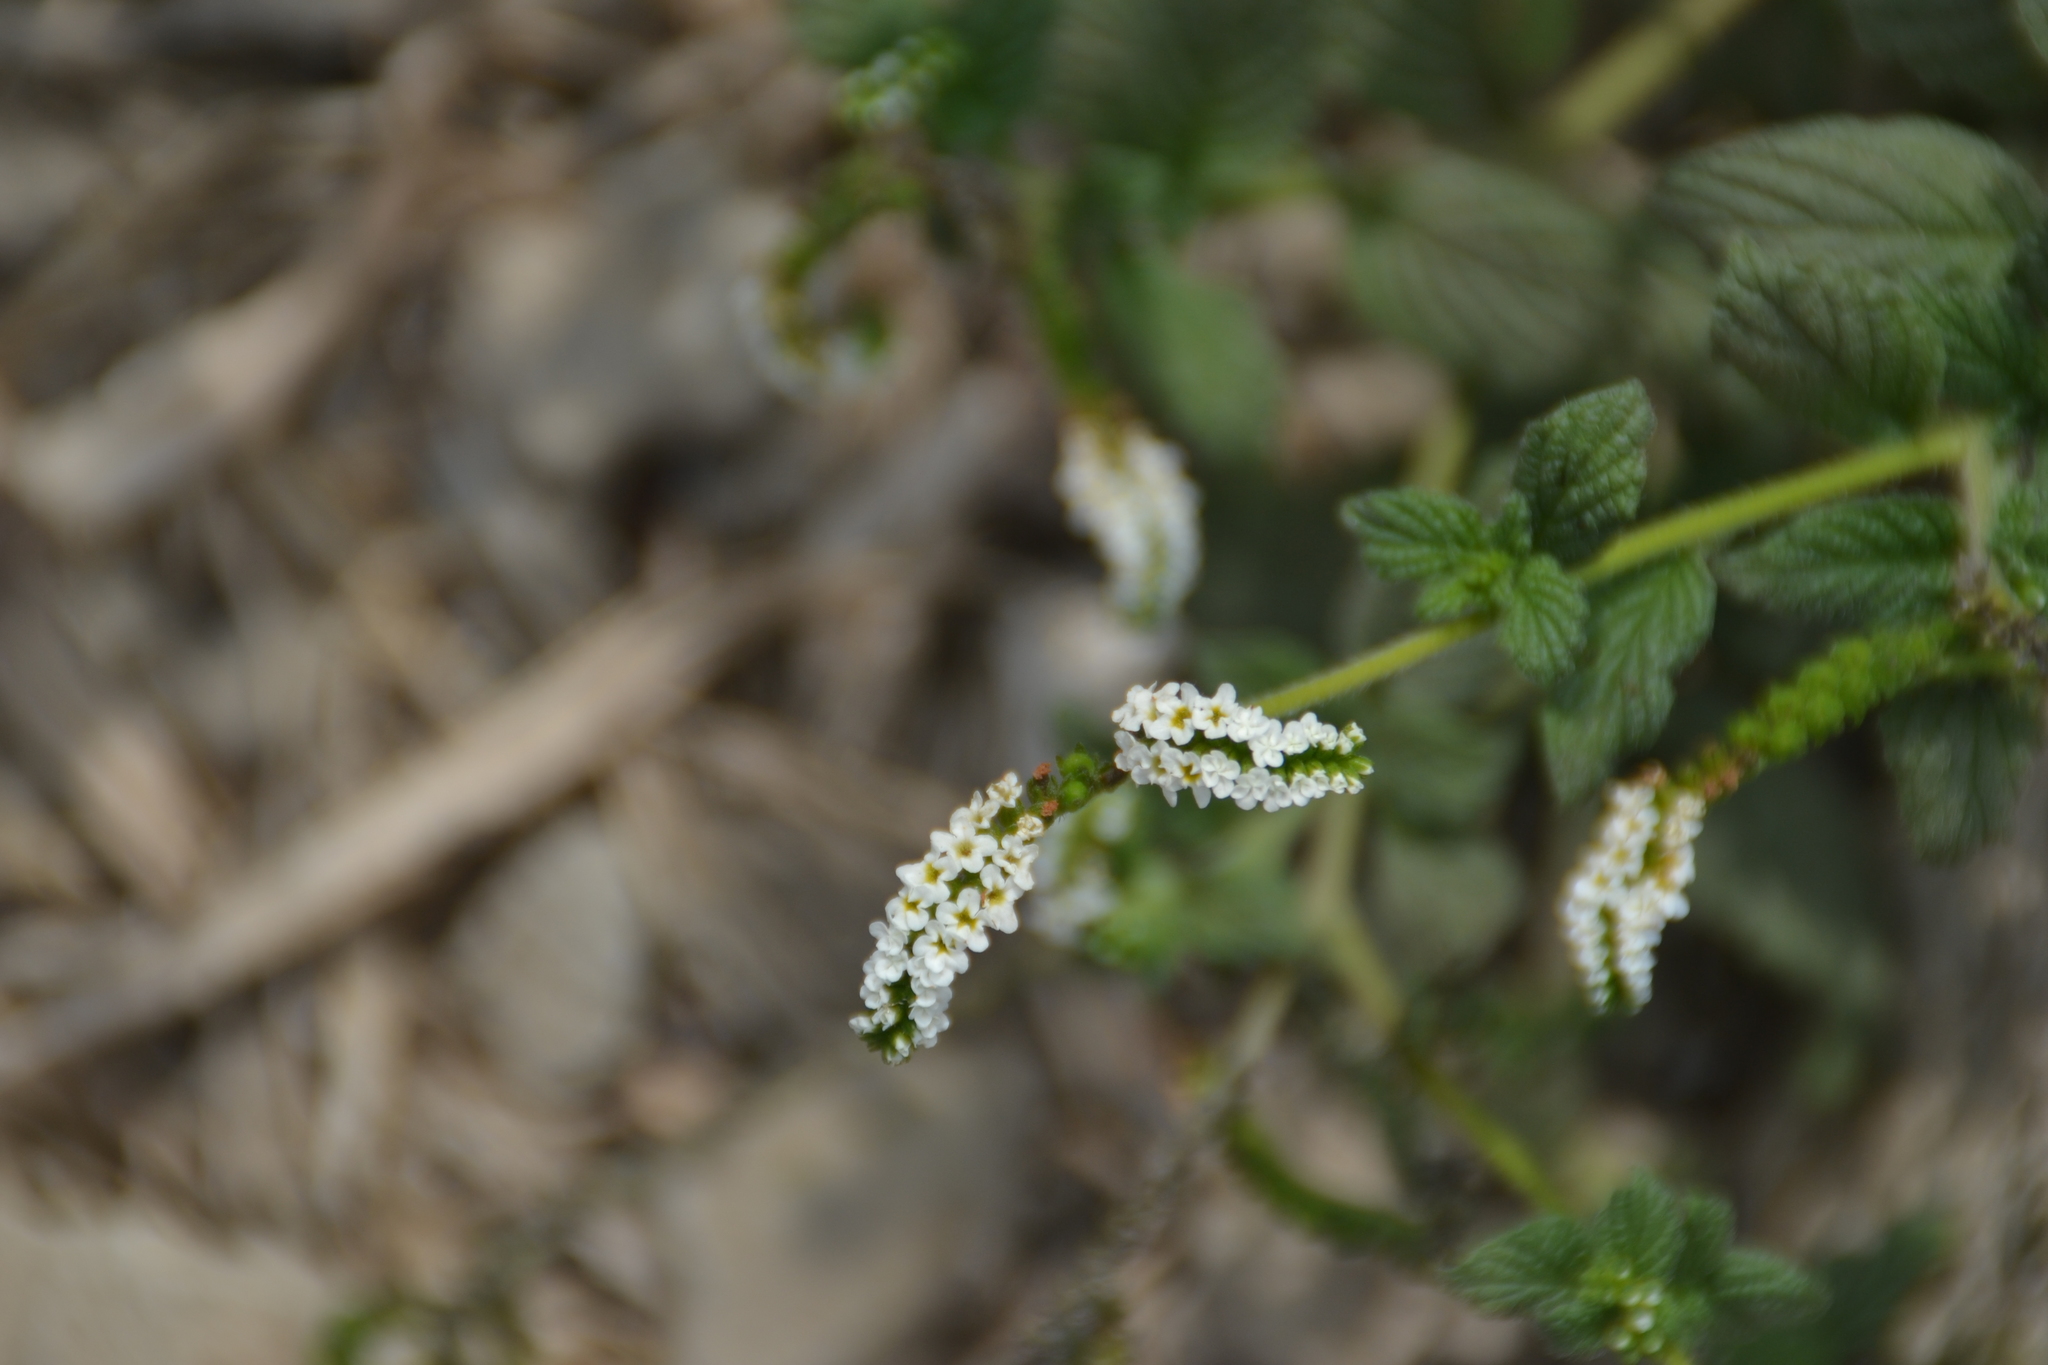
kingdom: Plantae
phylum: Tracheophyta
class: Magnoliopsida
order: Boraginales
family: Heliotropiaceae
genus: Heliotropium
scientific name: Heliotropium angiospermum
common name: Eye bright
